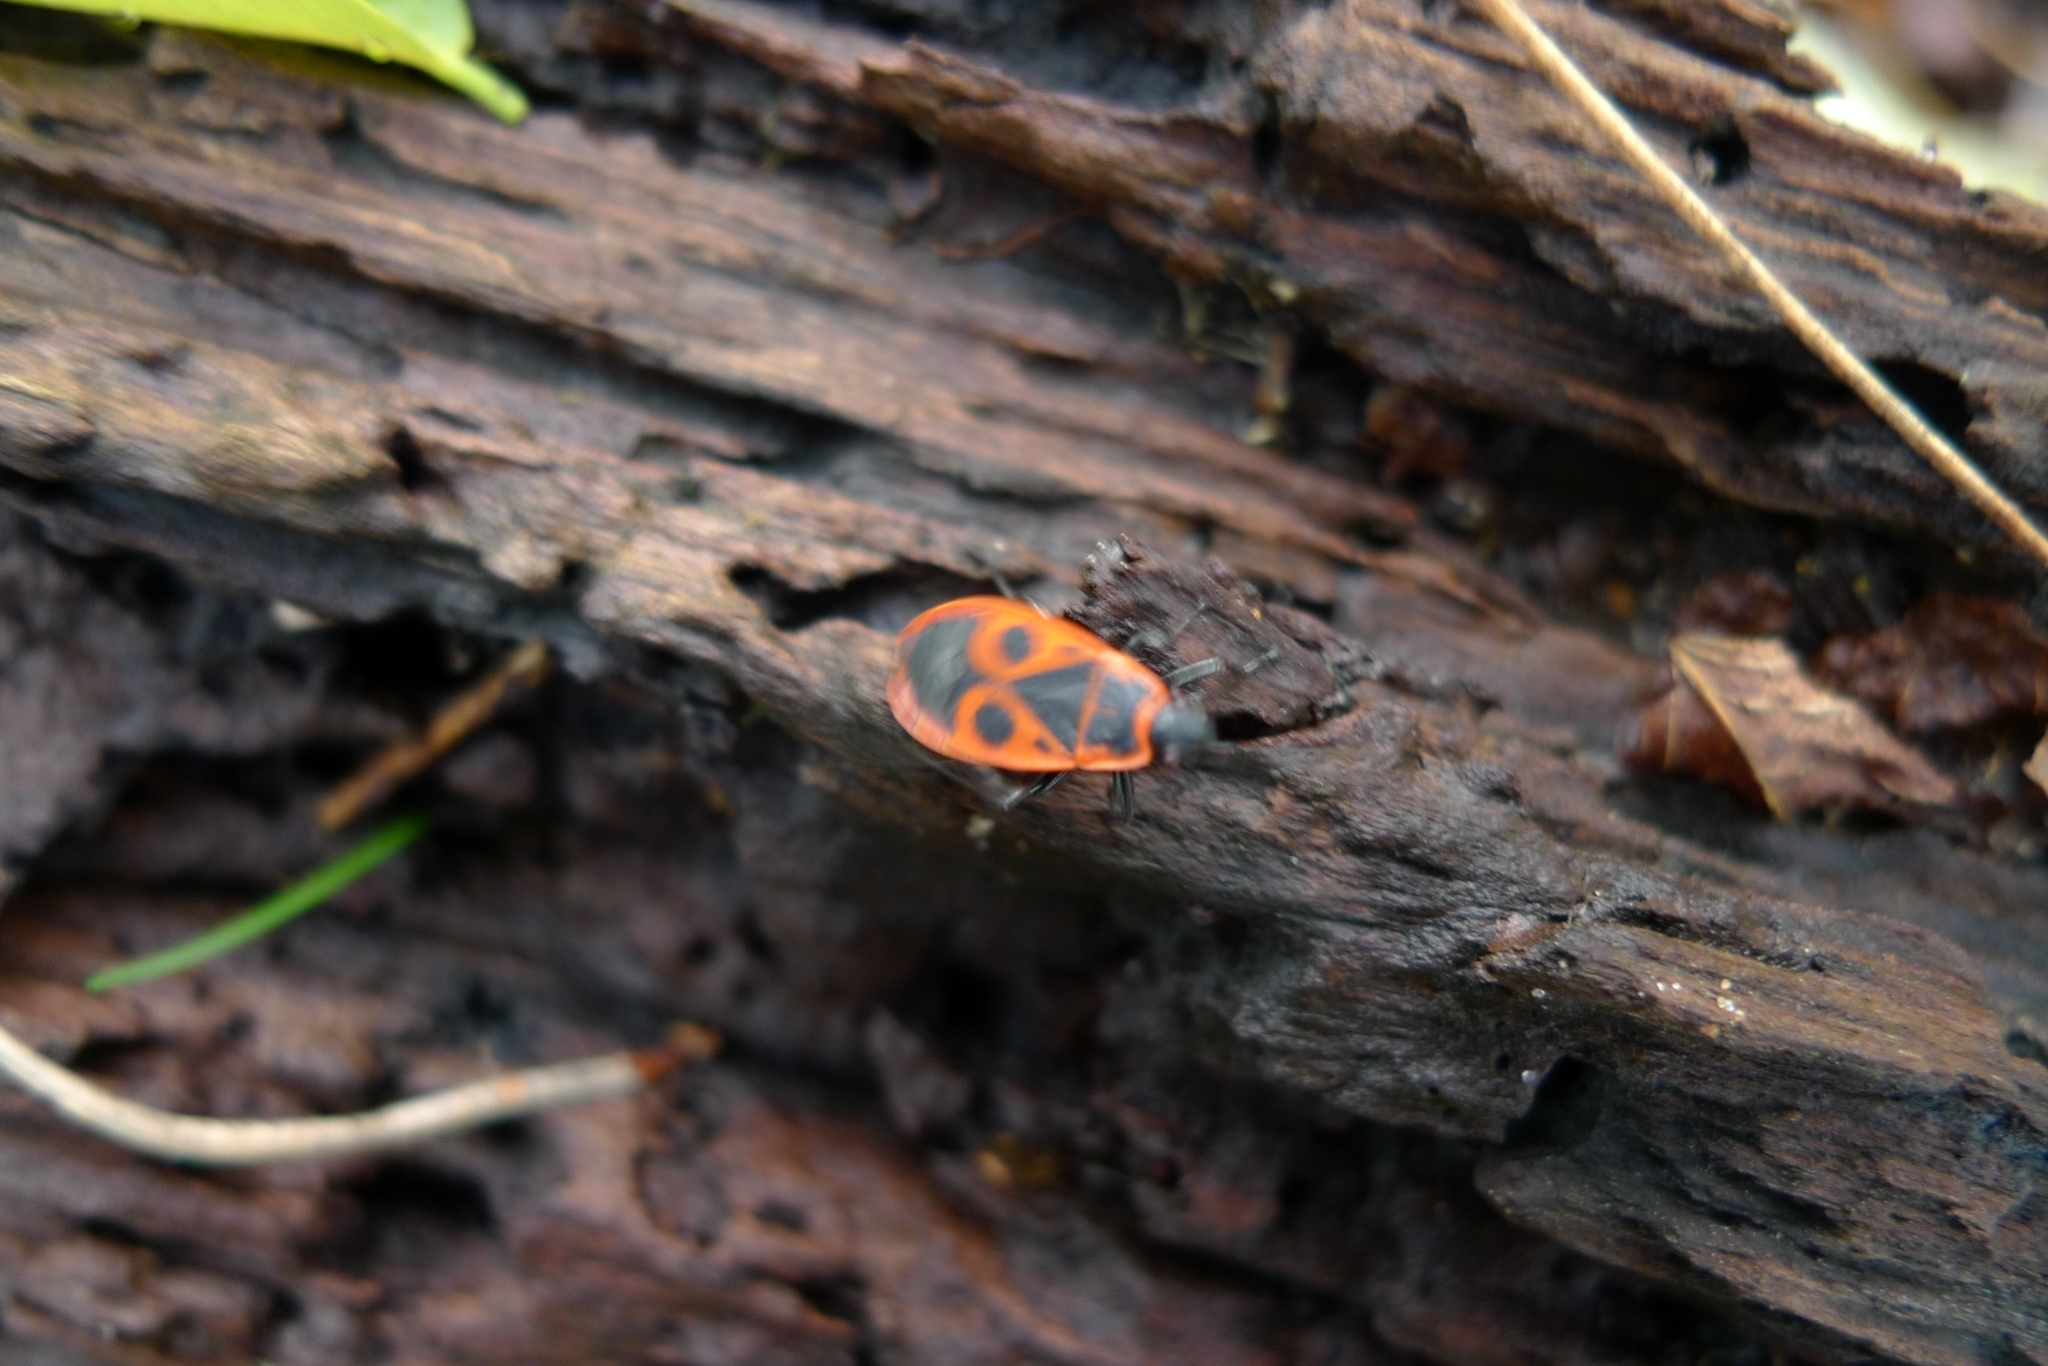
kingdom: Animalia
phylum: Arthropoda
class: Insecta
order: Hemiptera
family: Pyrrhocoridae
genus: Pyrrhocoris
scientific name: Pyrrhocoris apterus
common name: Firebug
